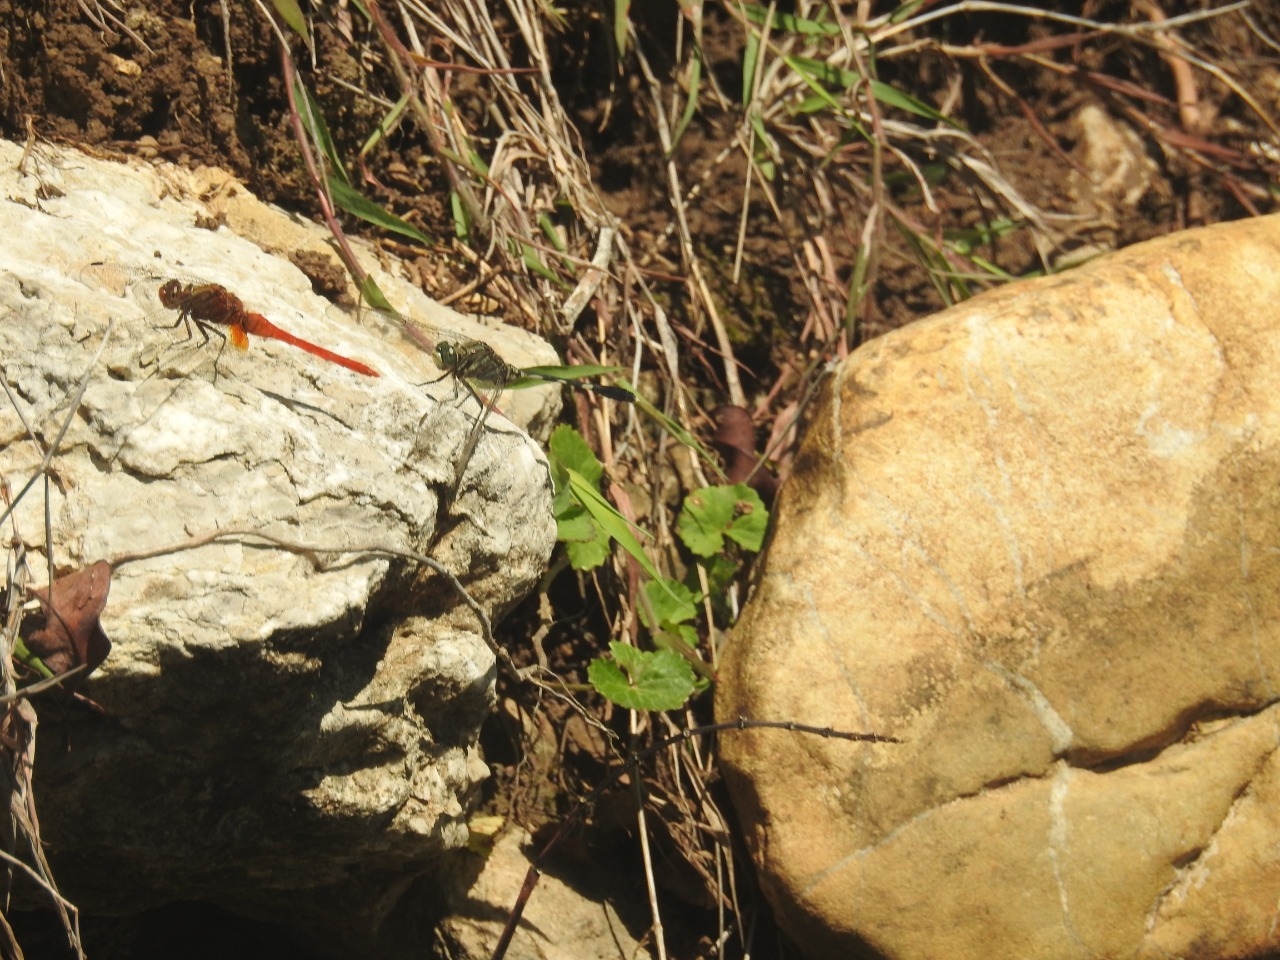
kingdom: Animalia
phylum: Arthropoda
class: Insecta
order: Odonata
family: Libellulidae
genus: Orthetrum
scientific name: Orthetrum sabina
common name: Slender skimmer
